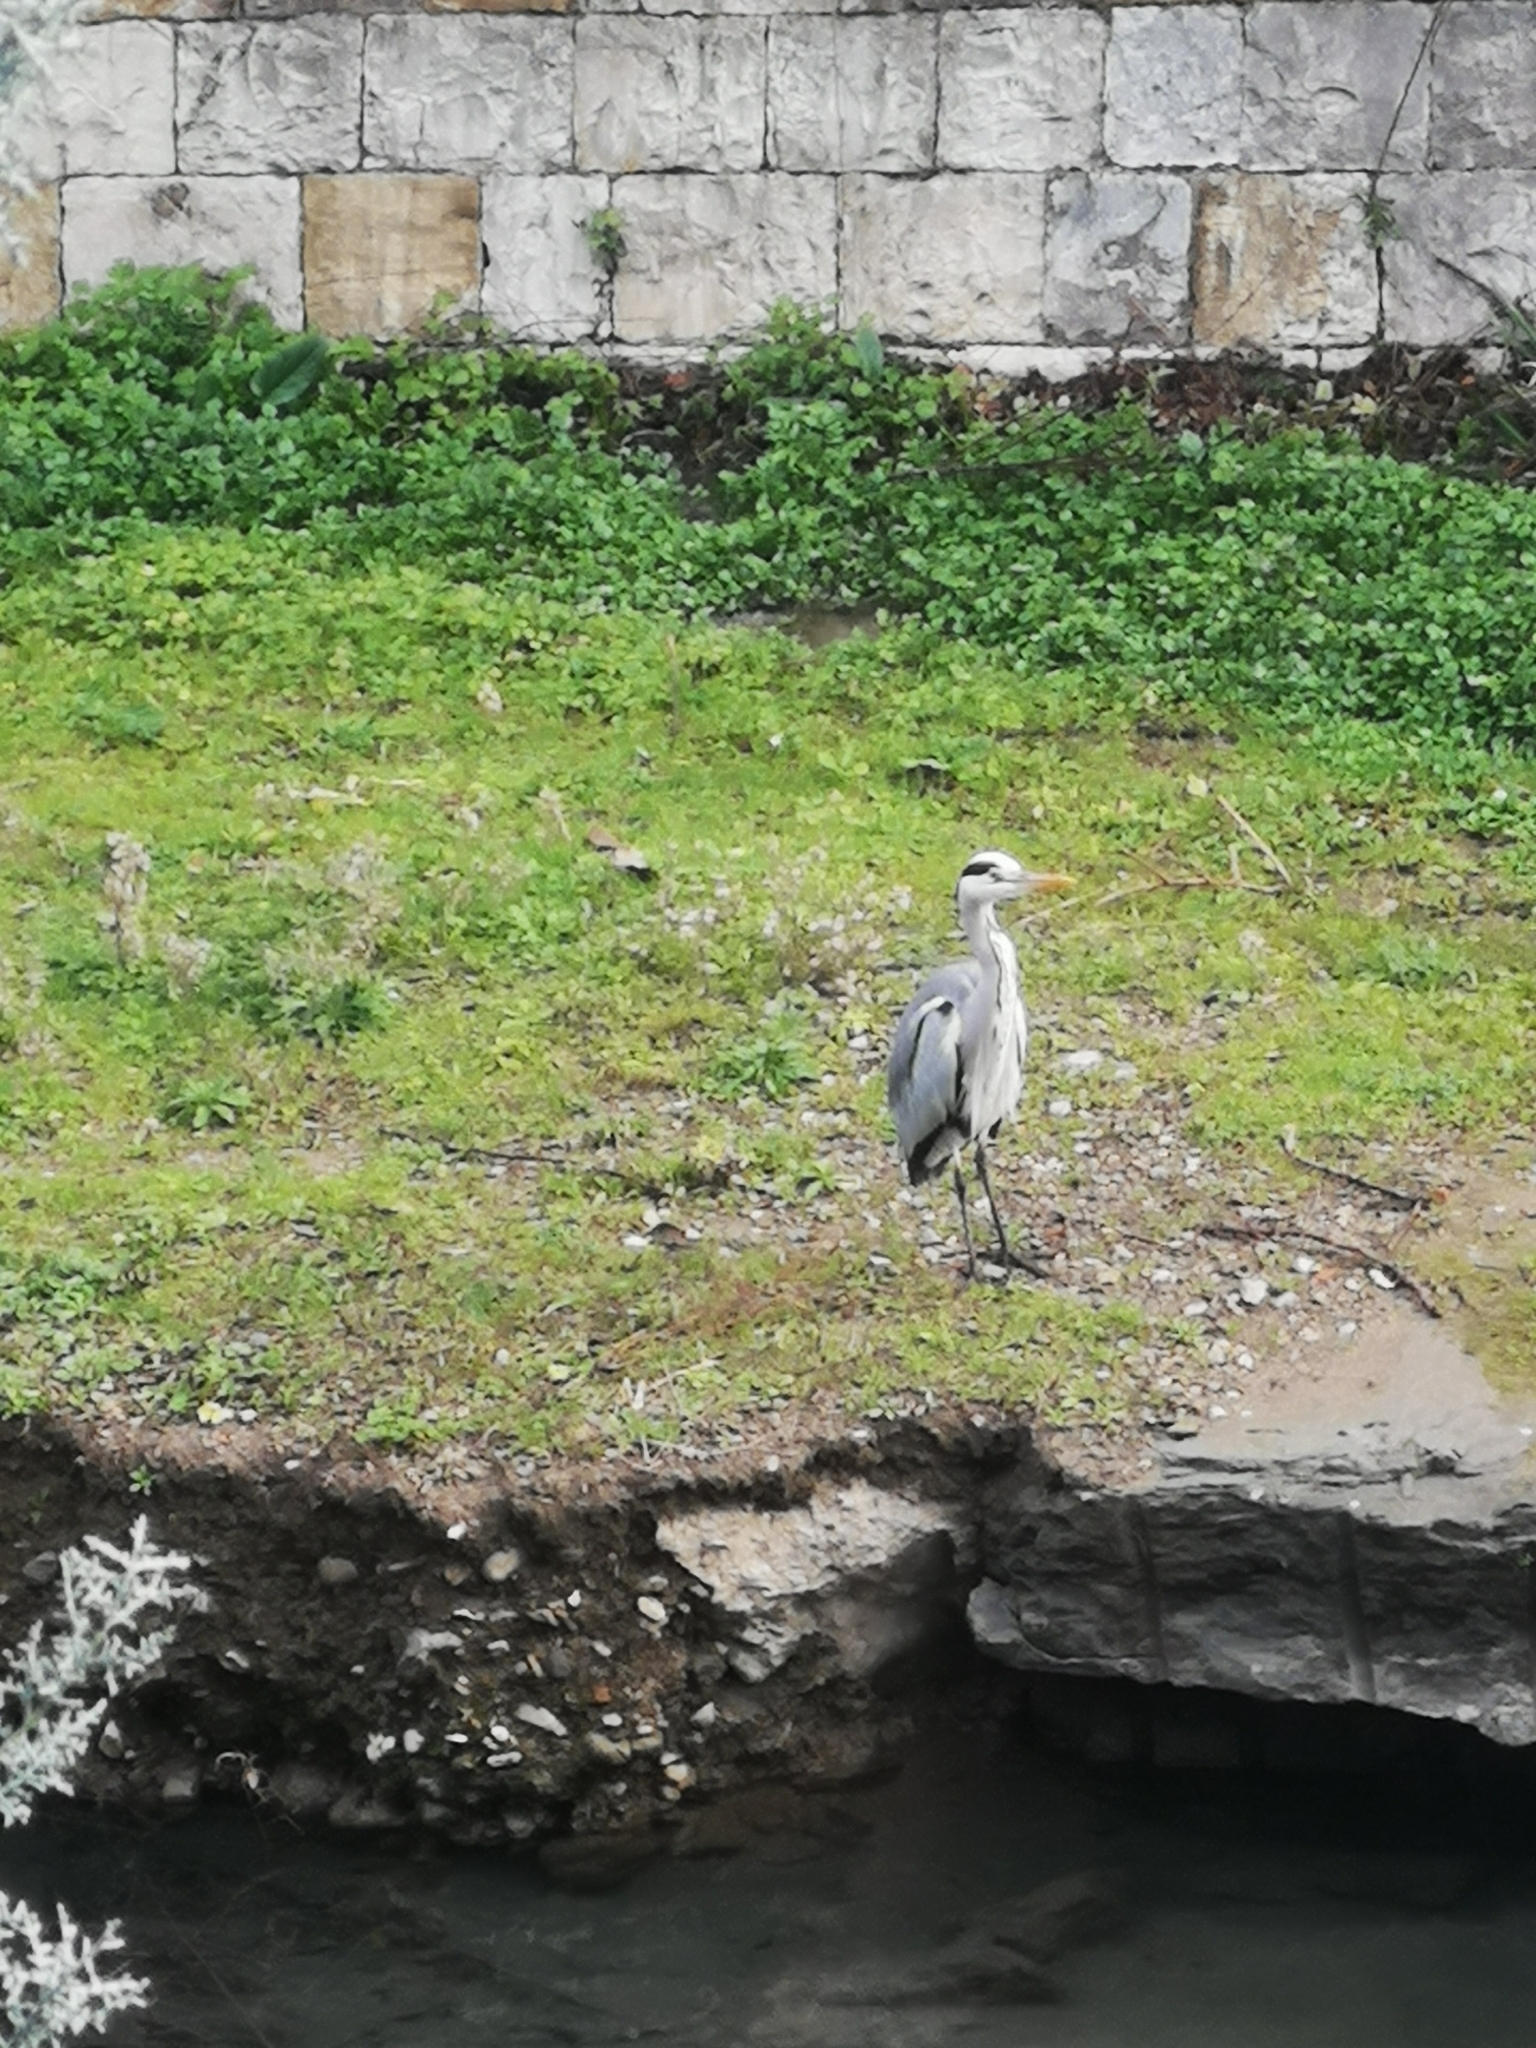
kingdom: Animalia
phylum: Chordata
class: Aves
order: Pelecaniformes
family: Ardeidae
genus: Ardea
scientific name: Ardea cinerea
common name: Grey heron
